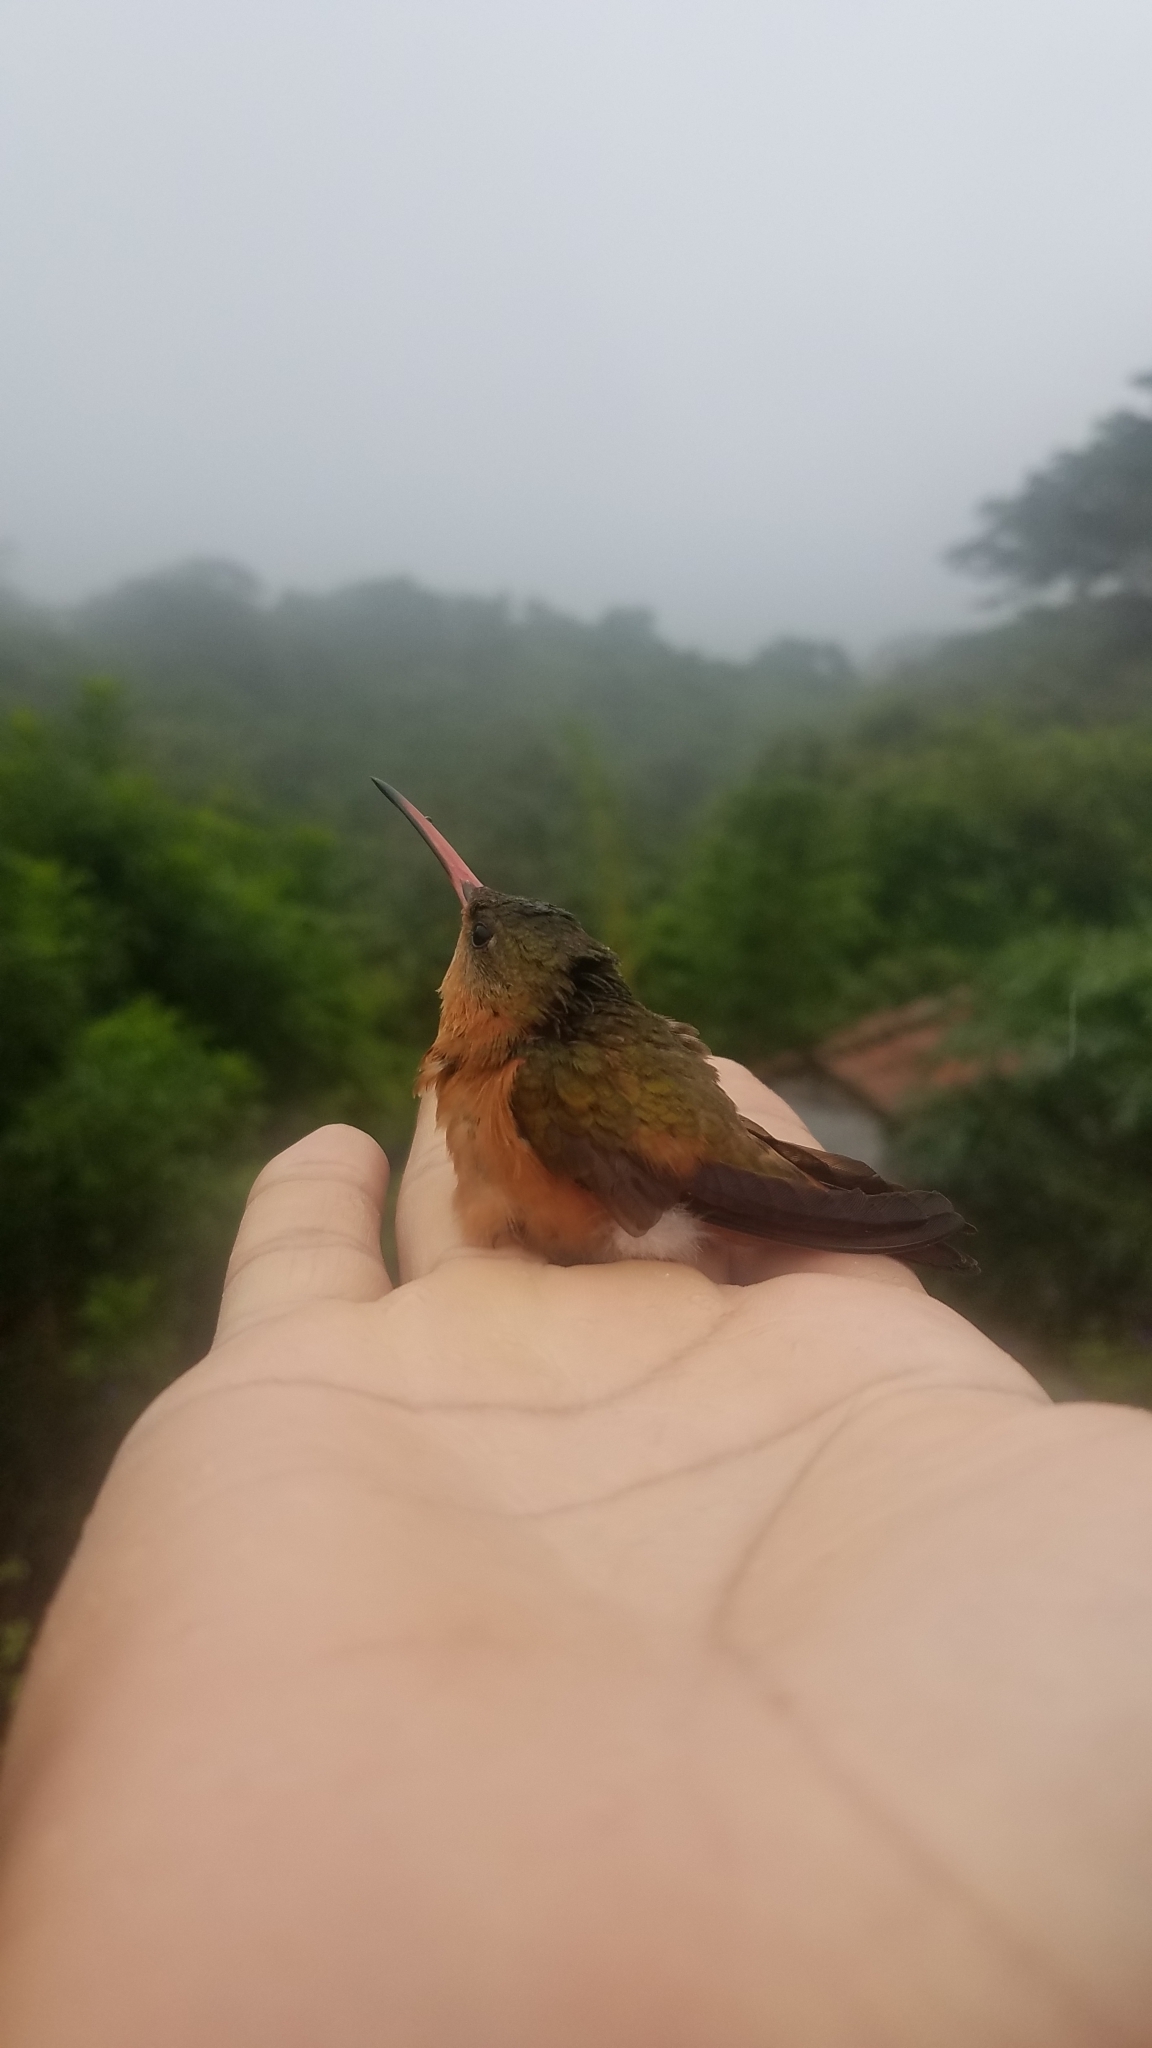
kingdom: Animalia
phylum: Chordata
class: Aves
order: Apodiformes
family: Trochilidae
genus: Amazilia
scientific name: Amazilia rutila
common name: Cinnamon hummingbird
